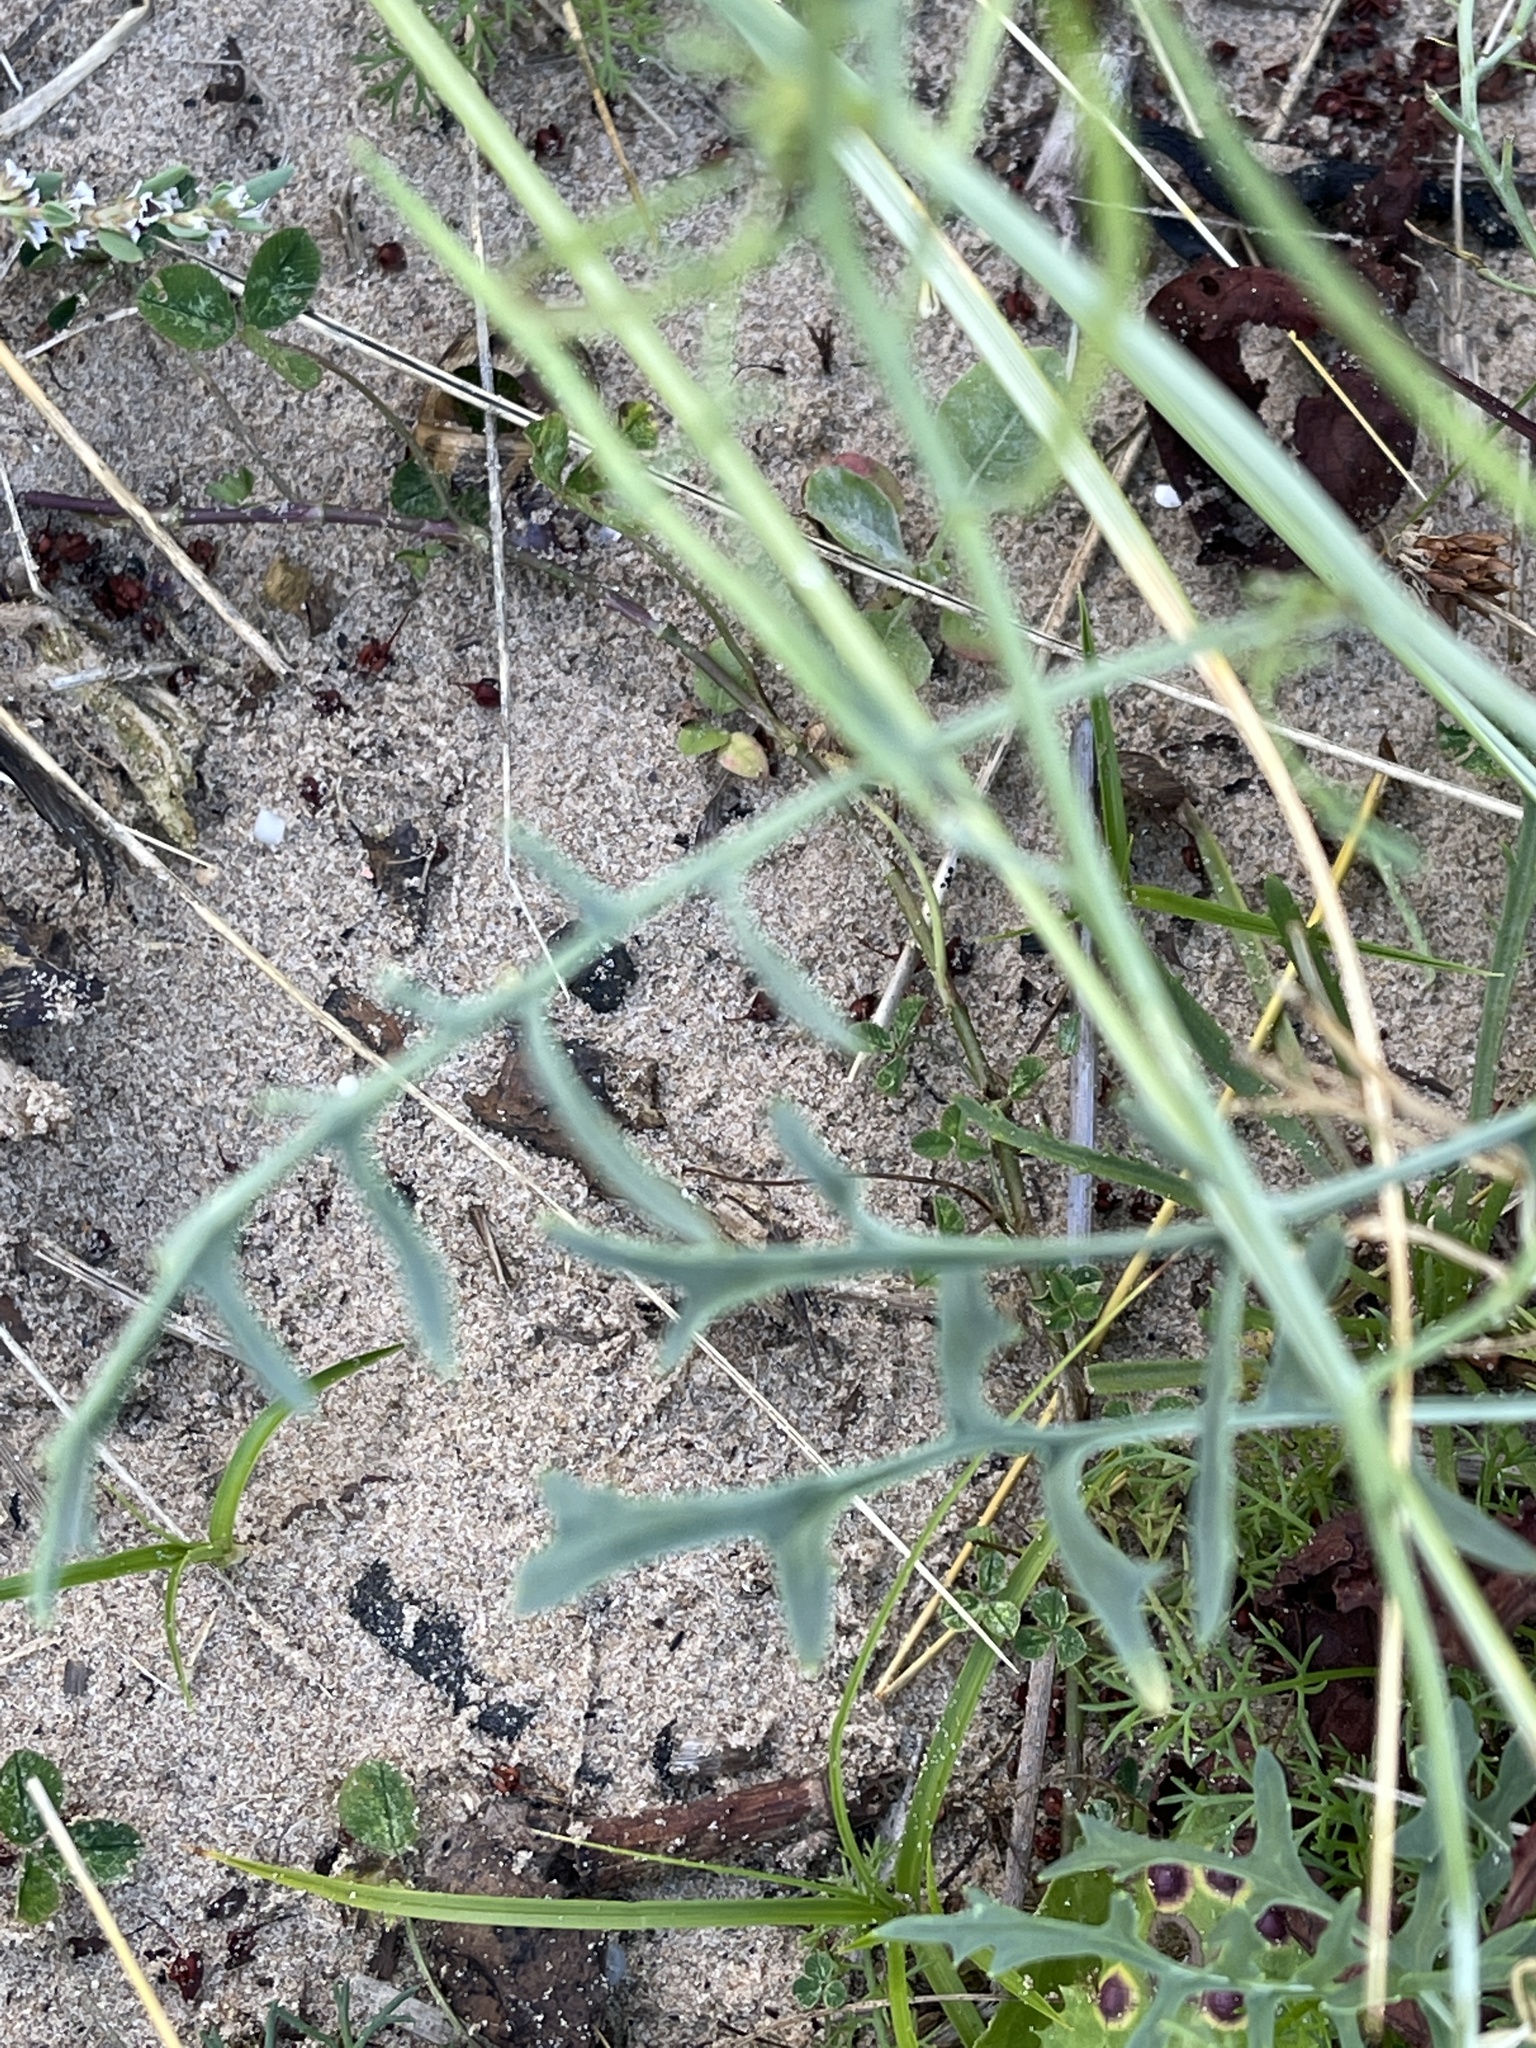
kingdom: Plantae
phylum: Tracheophyta
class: Magnoliopsida
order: Brassicales
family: Brassicaceae
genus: Coincya
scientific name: Coincya monensis
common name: Star-mustard
